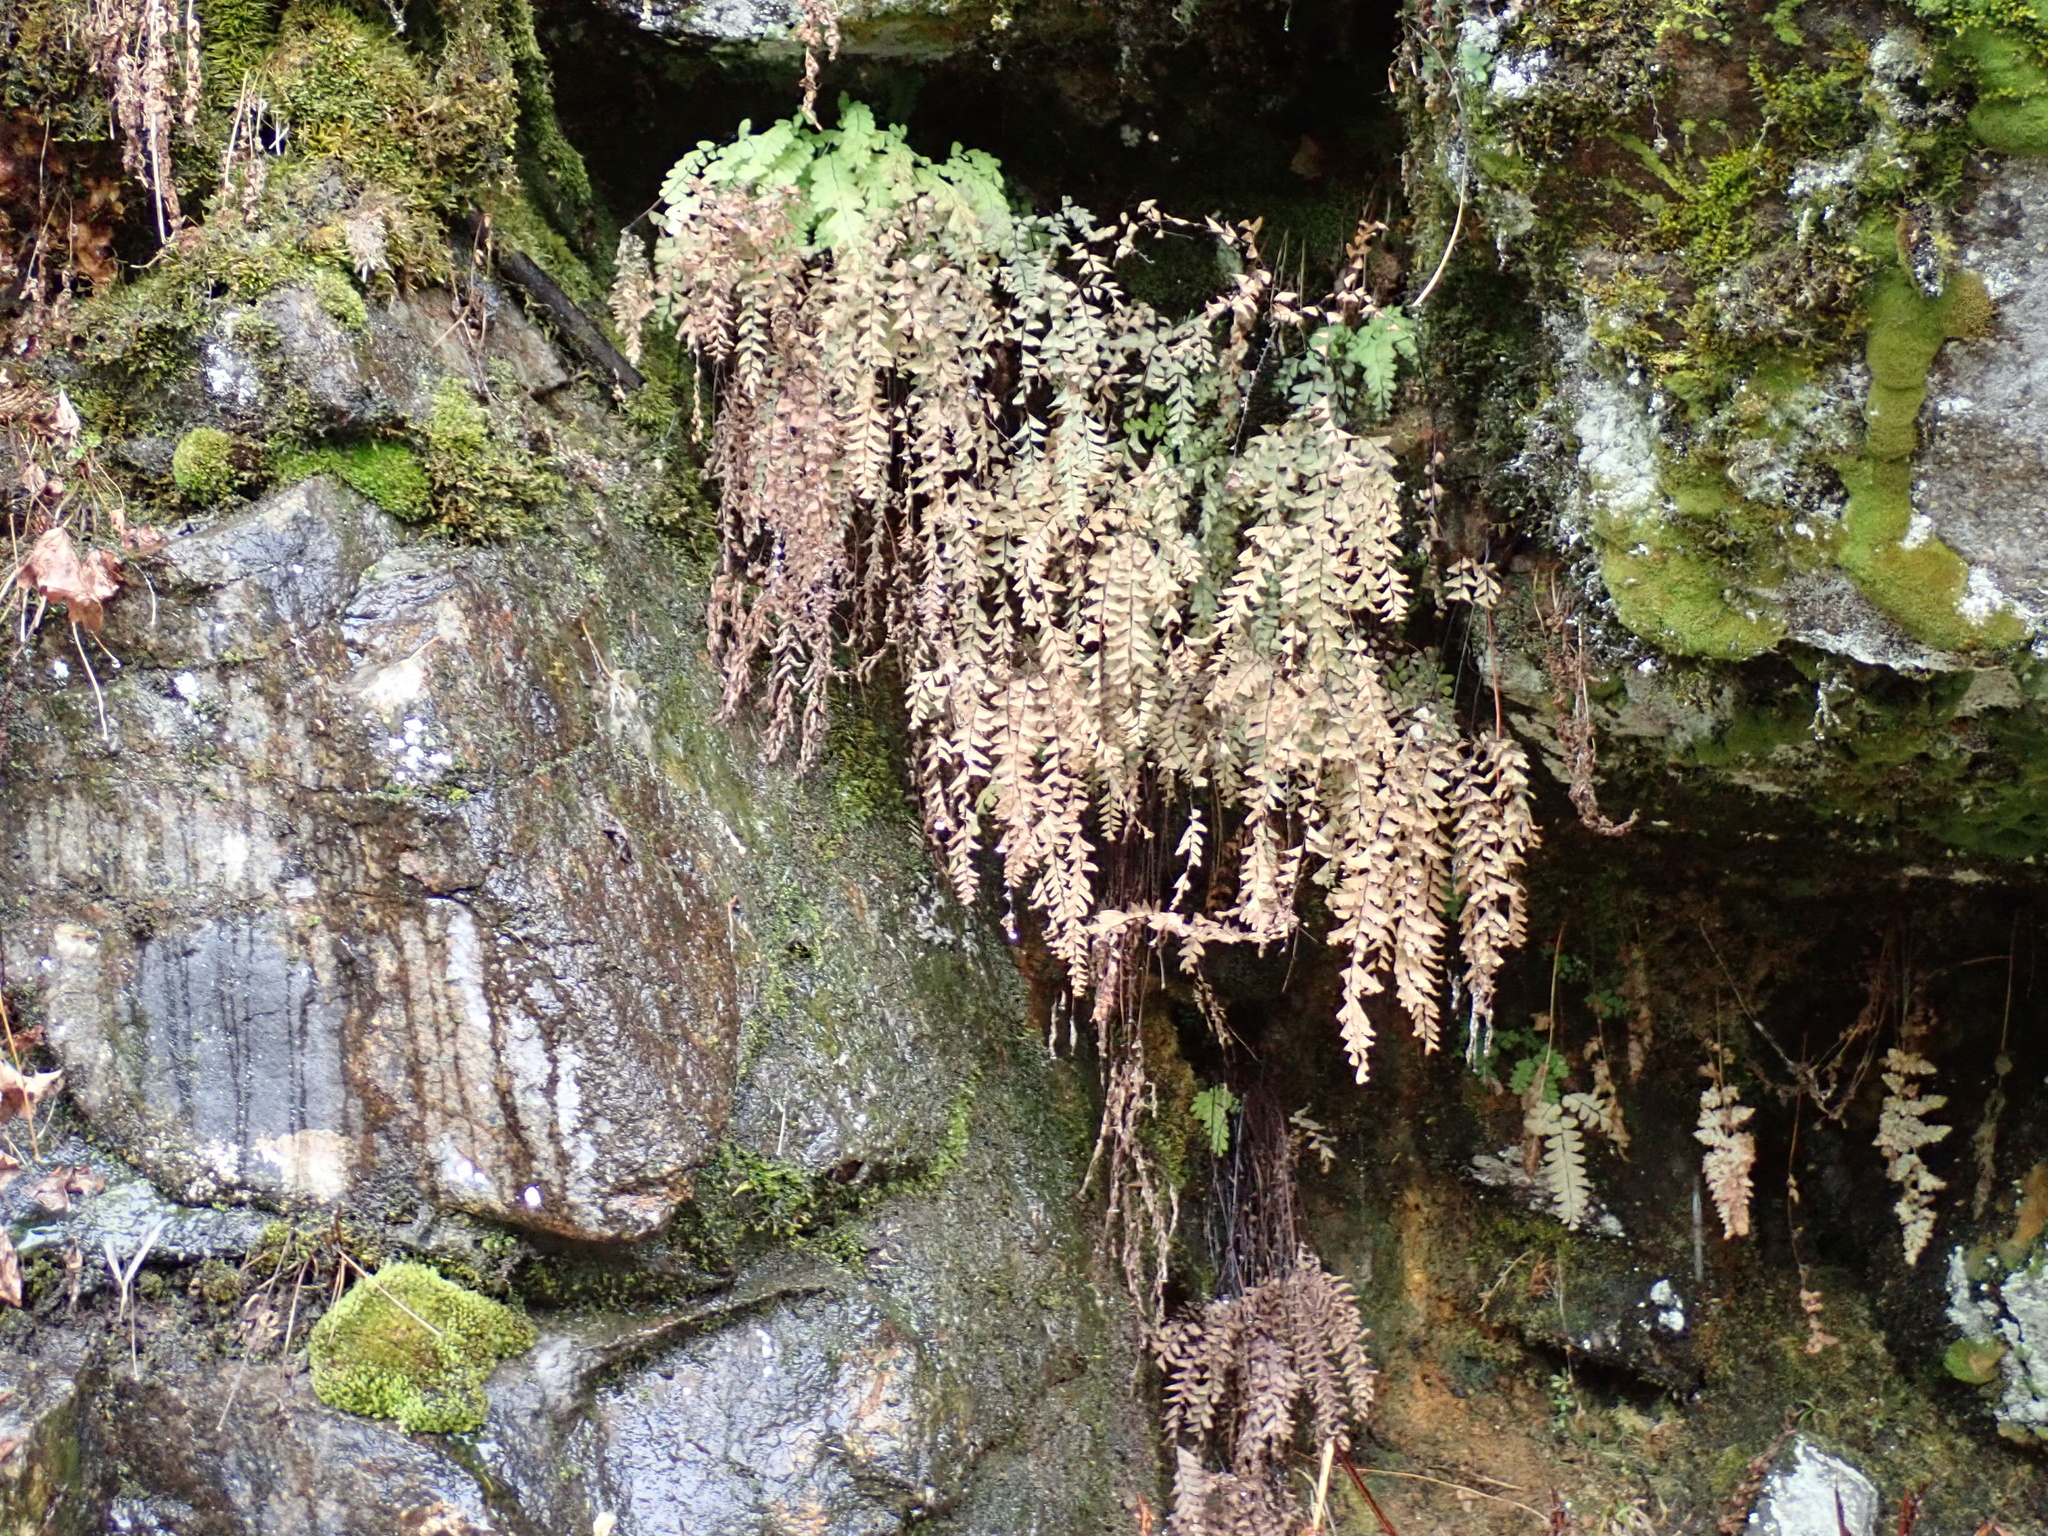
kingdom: Plantae
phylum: Tracheophyta
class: Polypodiopsida
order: Polypodiales
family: Pteridaceae
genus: Adiantum
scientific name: Adiantum aleuticum
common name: Aleutian maidenhair fern
